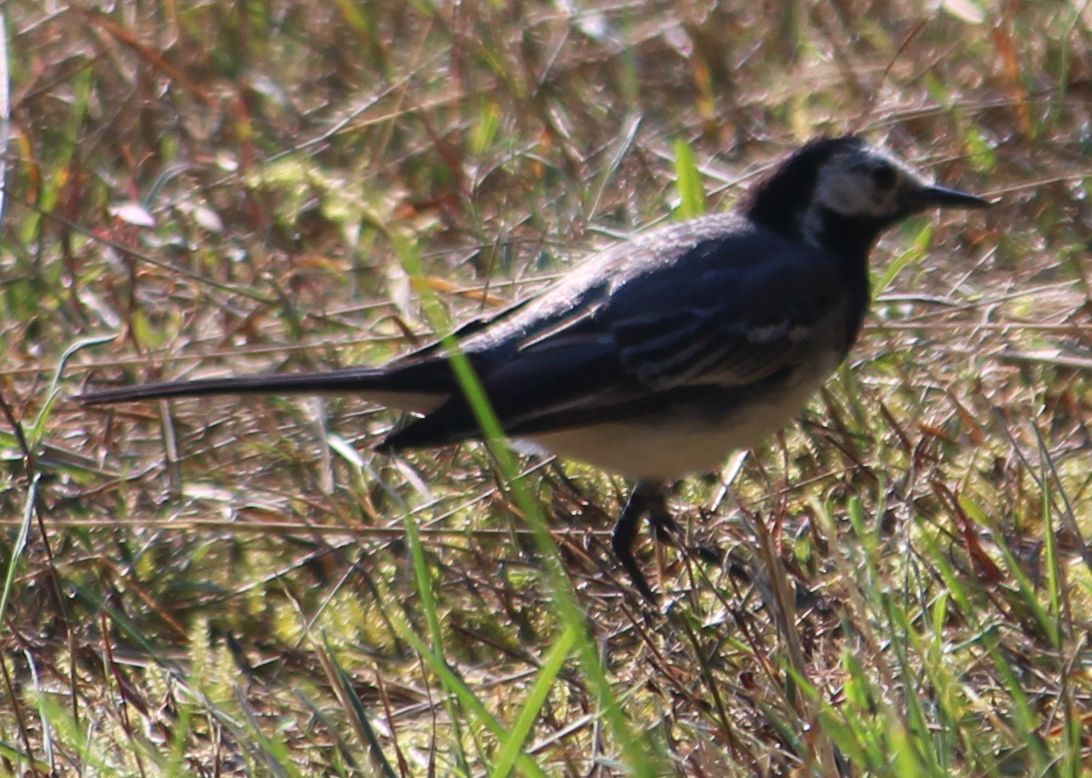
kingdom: Animalia
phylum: Chordata
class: Aves
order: Passeriformes
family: Motacillidae
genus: Motacilla
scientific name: Motacilla alba
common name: White wagtail
